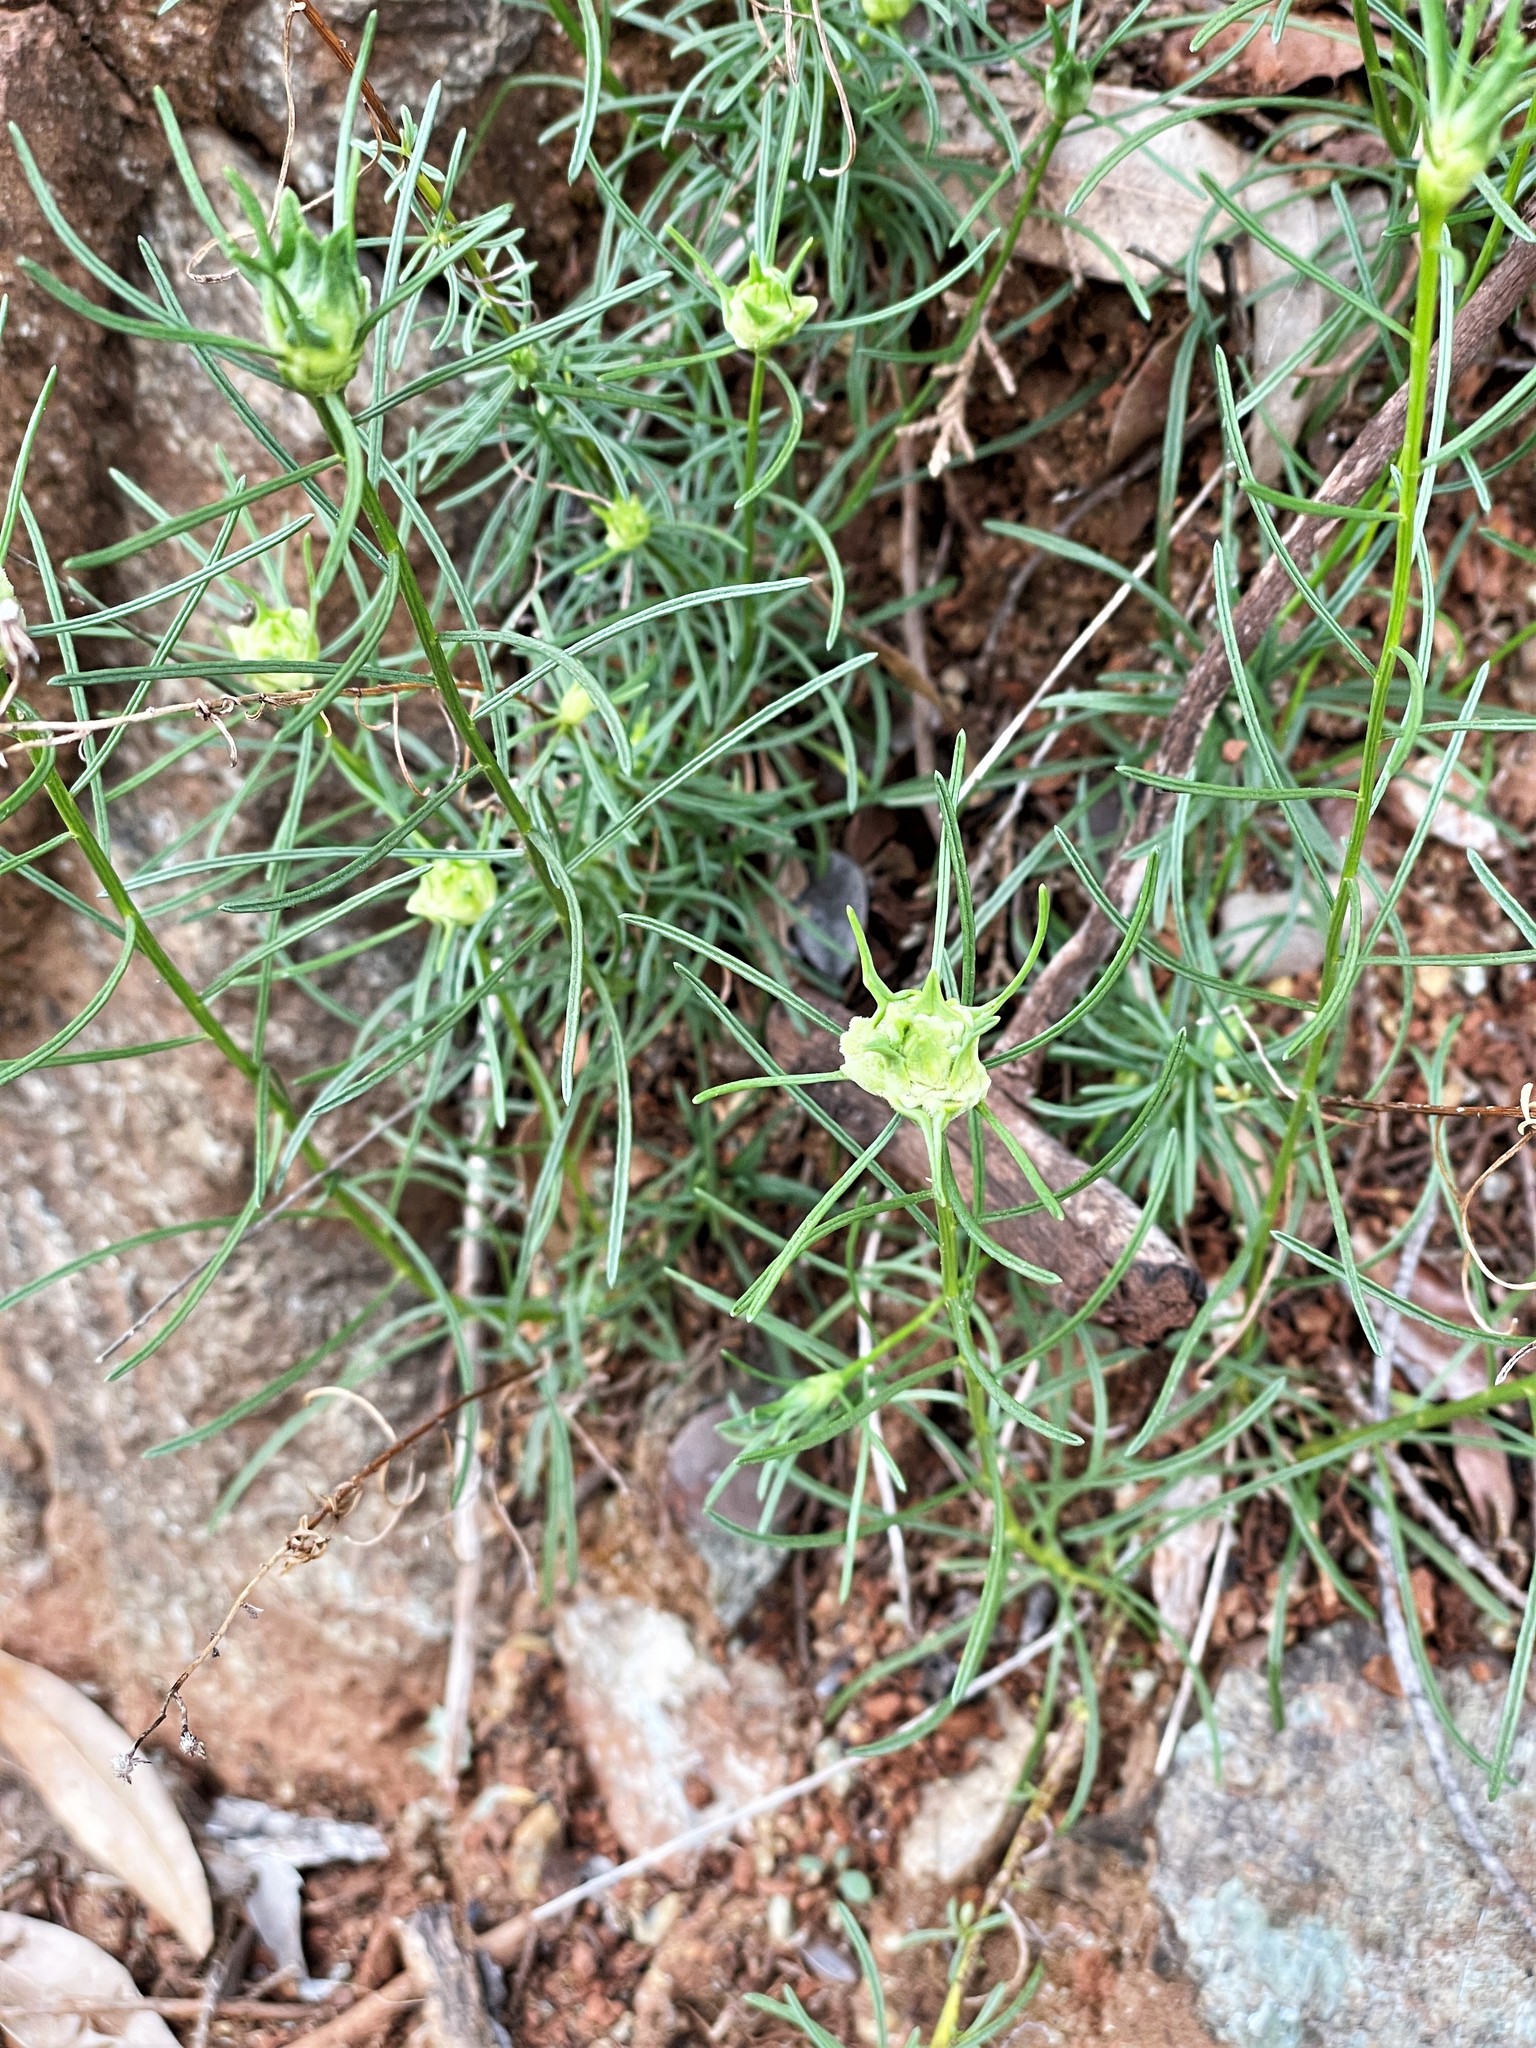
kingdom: Animalia
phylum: Arthropoda
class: Insecta
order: Diptera
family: Cecidomyiidae
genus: Rhopalomyia
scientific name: Rhopalomyia erigerontis
